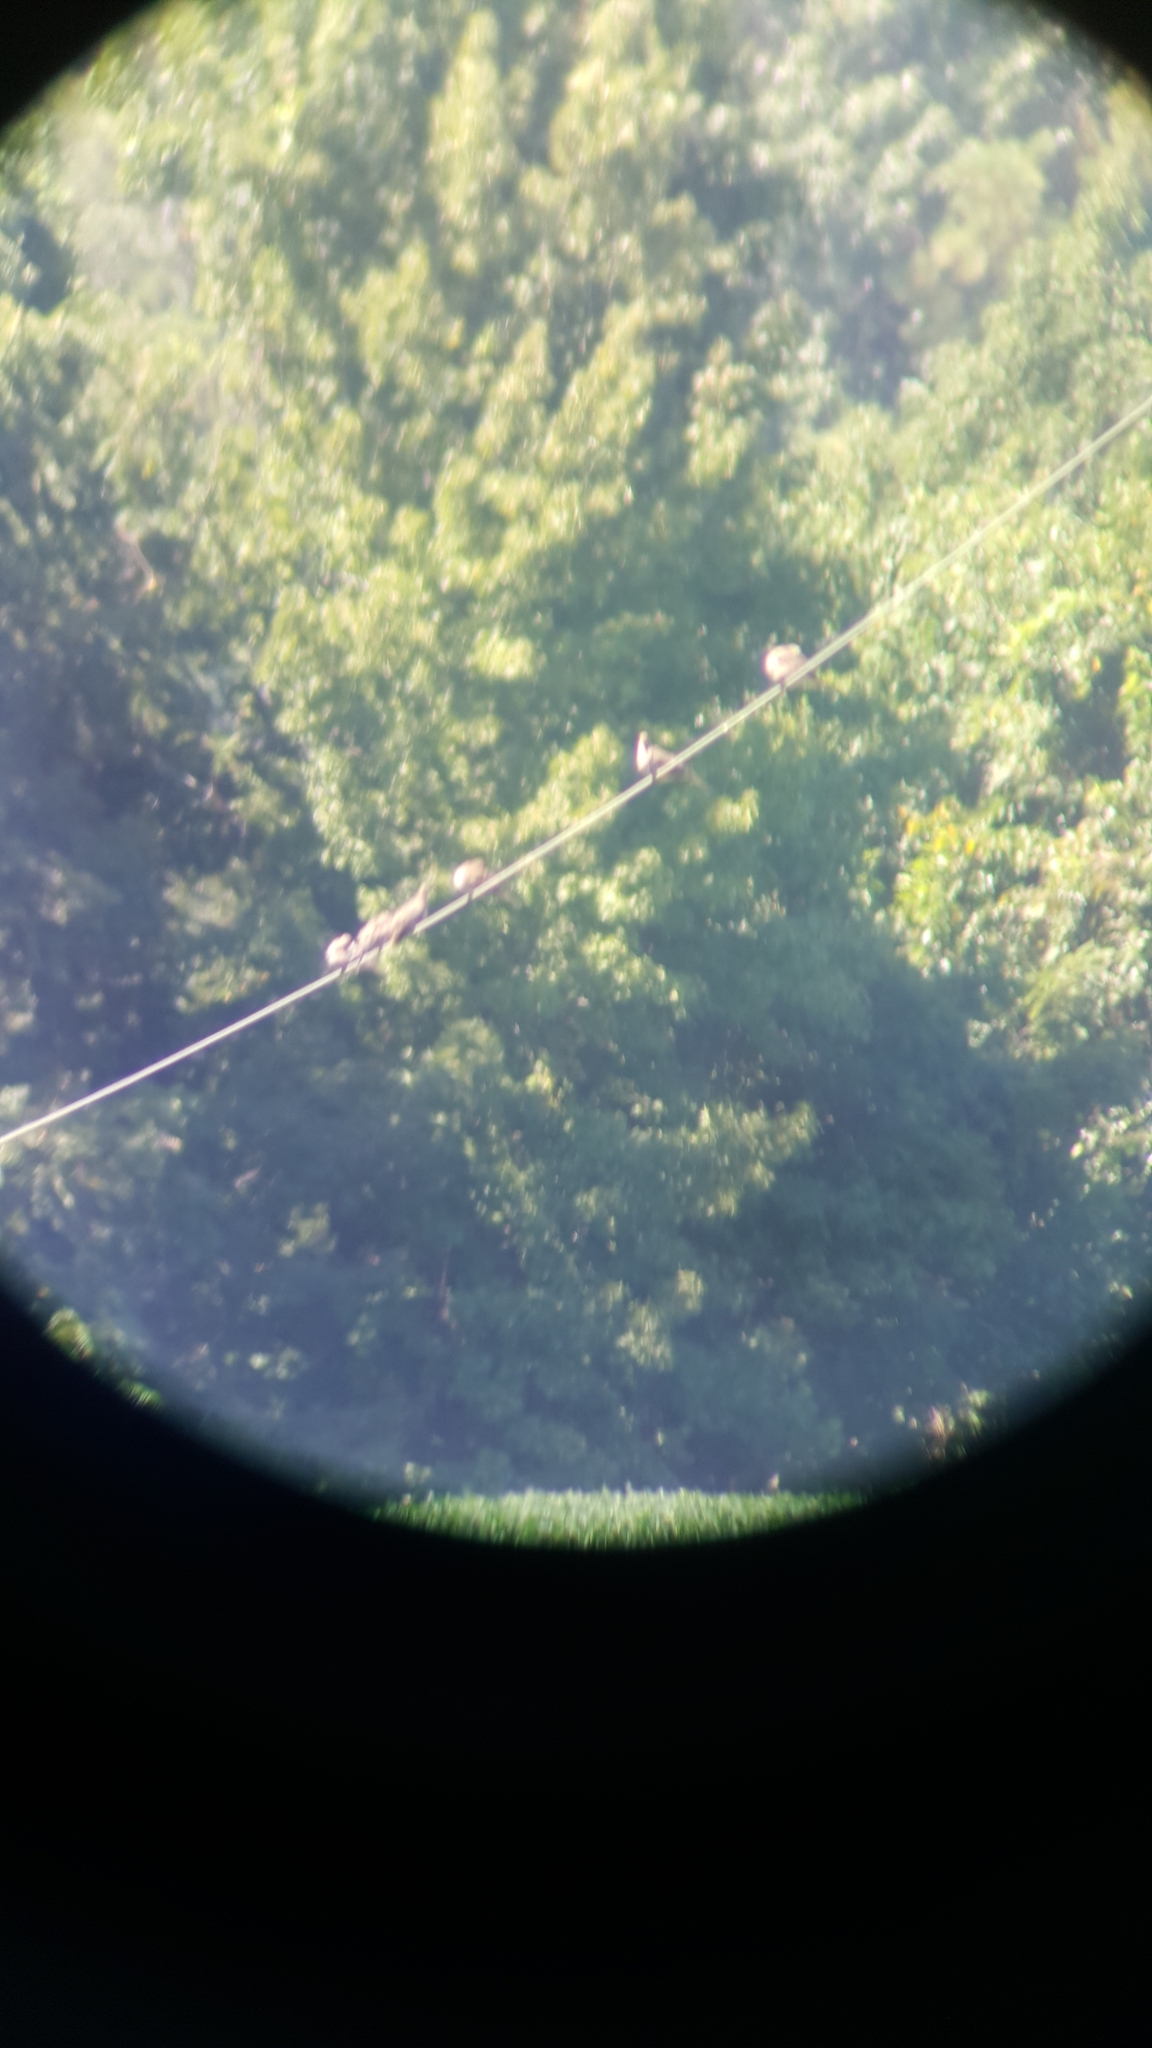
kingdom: Animalia
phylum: Chordata
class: Aves
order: Columbiformes
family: Columbidae
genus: Zenaida
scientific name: Zenaida macroura
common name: Mourning dove
